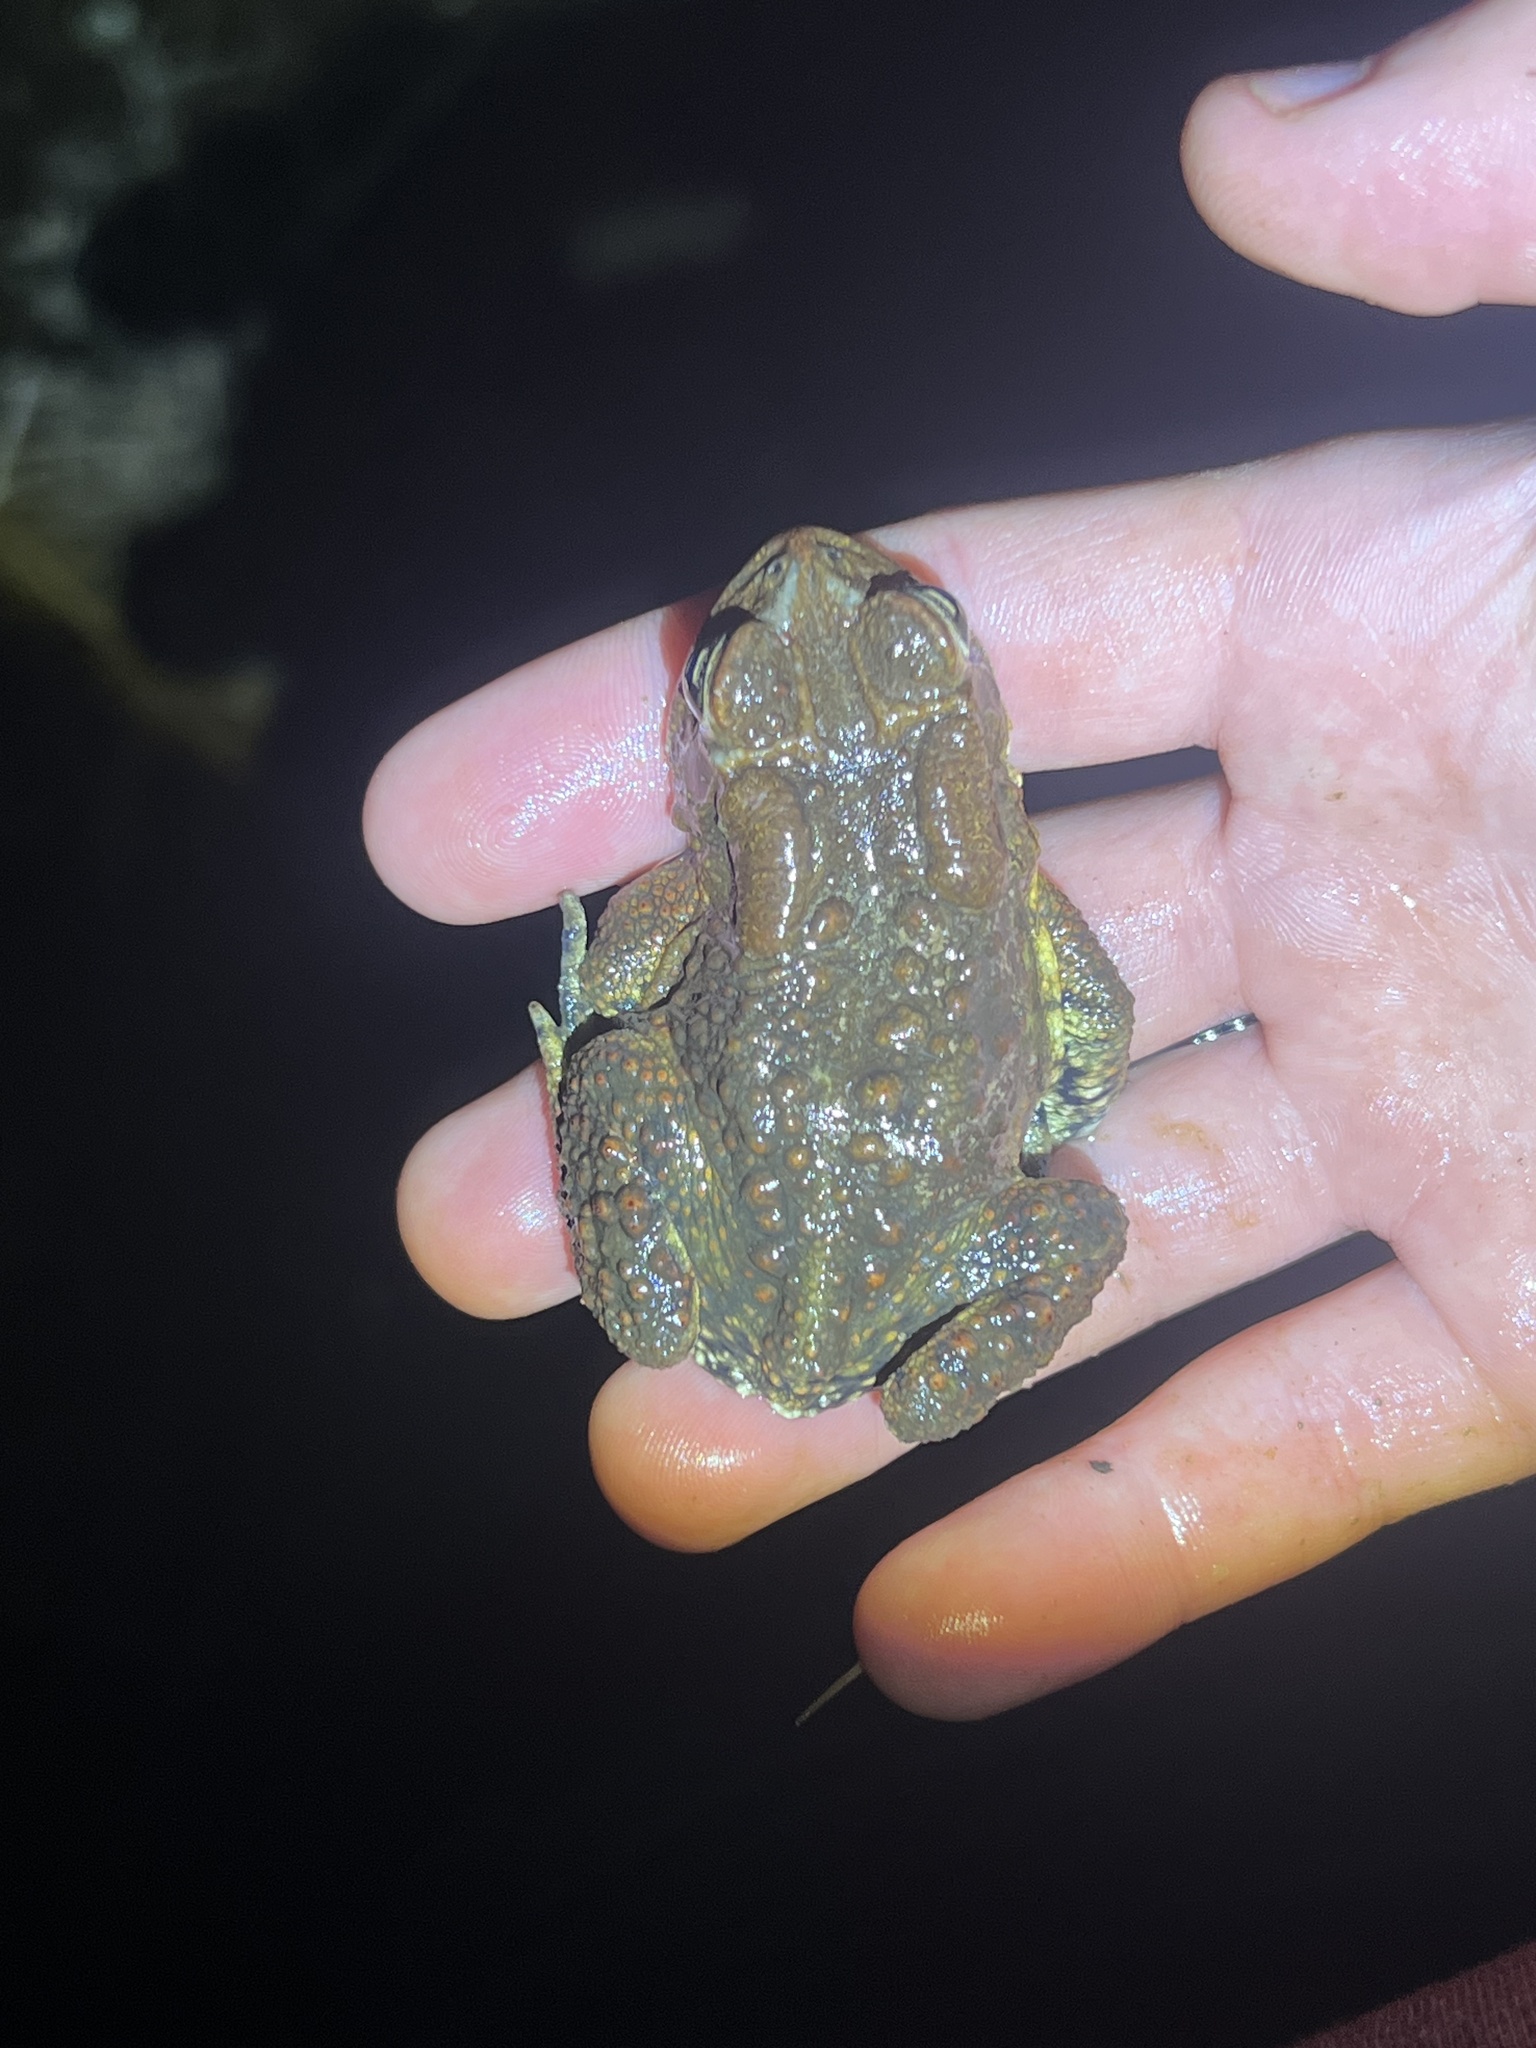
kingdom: Animalia
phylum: Chordata
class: Amphibia
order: Anura
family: Bufonidae
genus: Anaxyrus
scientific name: Anaxyrus americanus
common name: American toad
